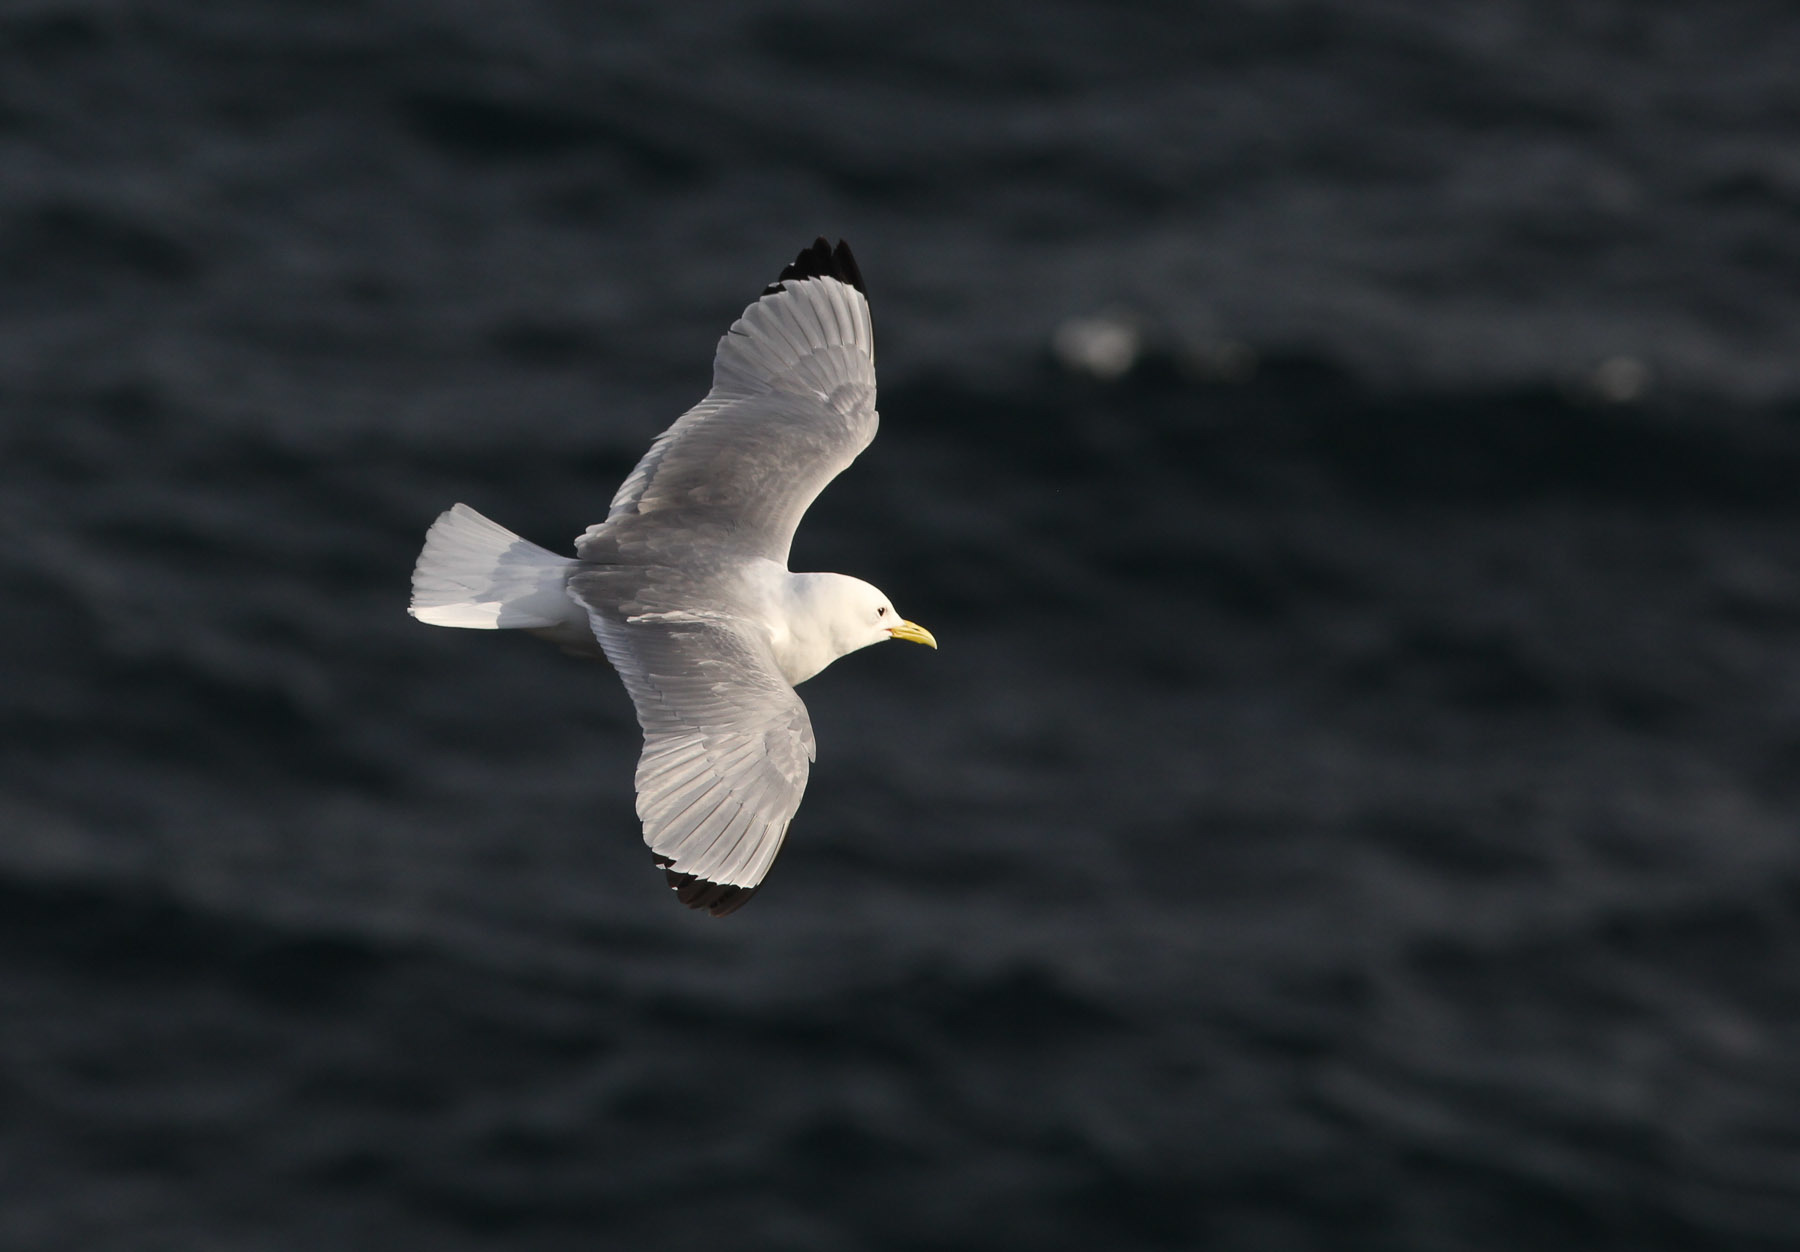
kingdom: Animalia
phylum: Chordata
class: Aves
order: Charadriiformes
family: Laridae
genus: Rissa
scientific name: Rissa tridactyla
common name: Black-legged kittiwake
